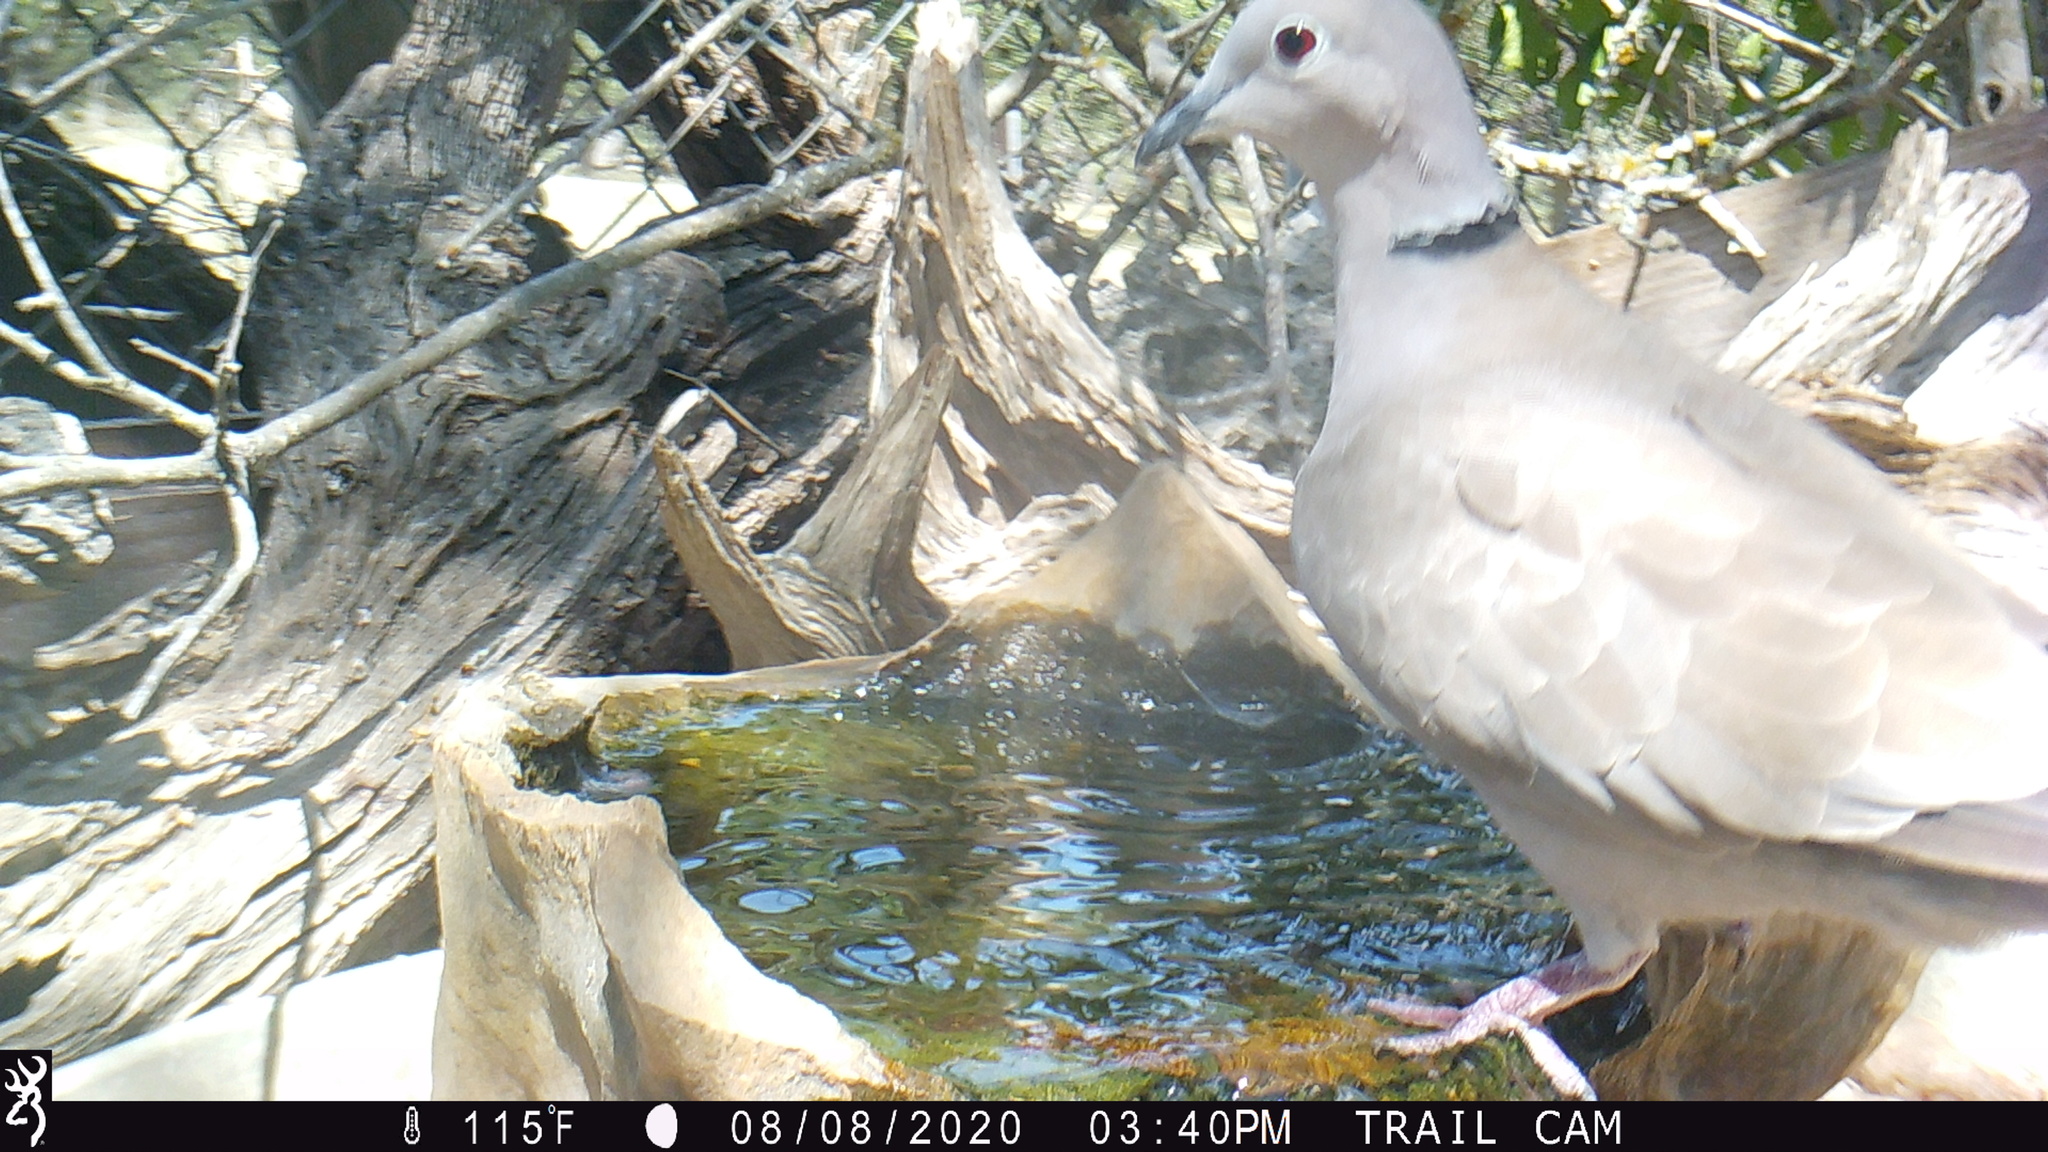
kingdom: Animalia
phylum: Chordata
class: Aves
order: Columbiformes
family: Columbidae
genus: Streptopelia
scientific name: Streptopelia decaocto
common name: Eurasian collared dove
